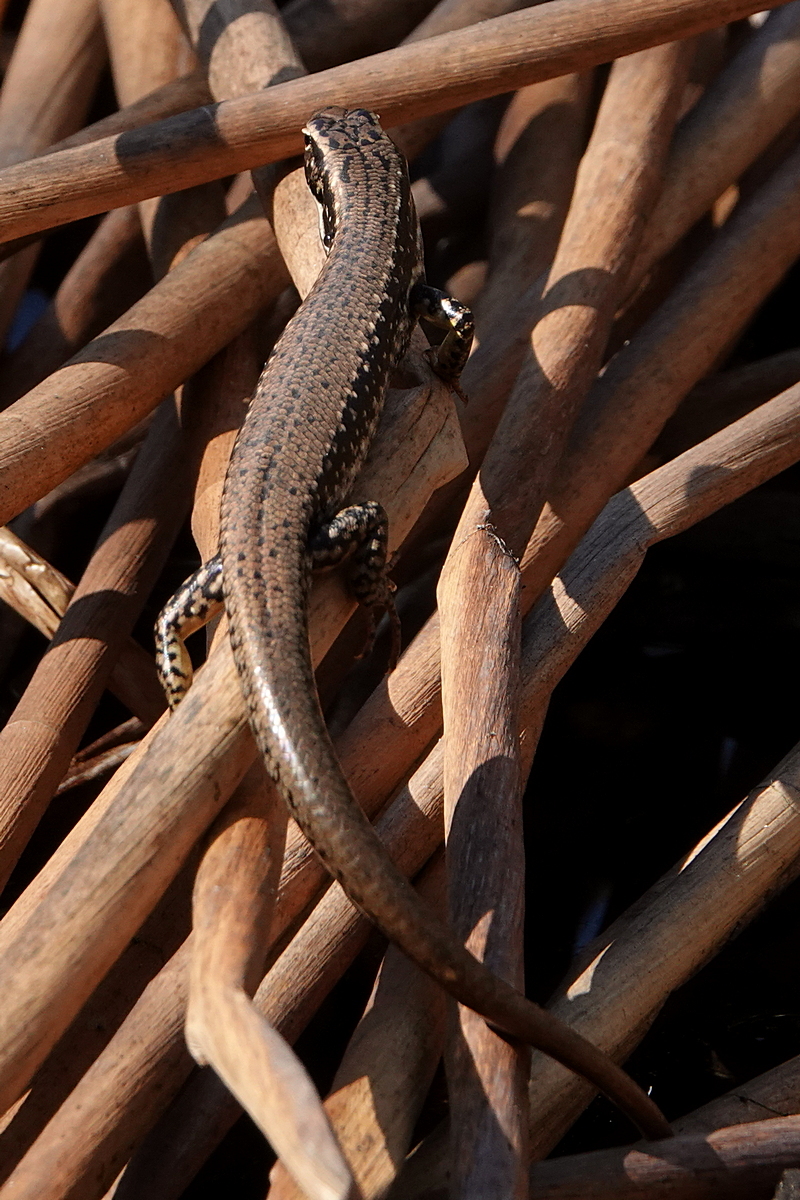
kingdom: Animalia
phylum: Chordata
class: Squamata
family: Scincidae
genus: Eulamprus
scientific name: Eulamprus heatwolei
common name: Warm-temperate water-skink
